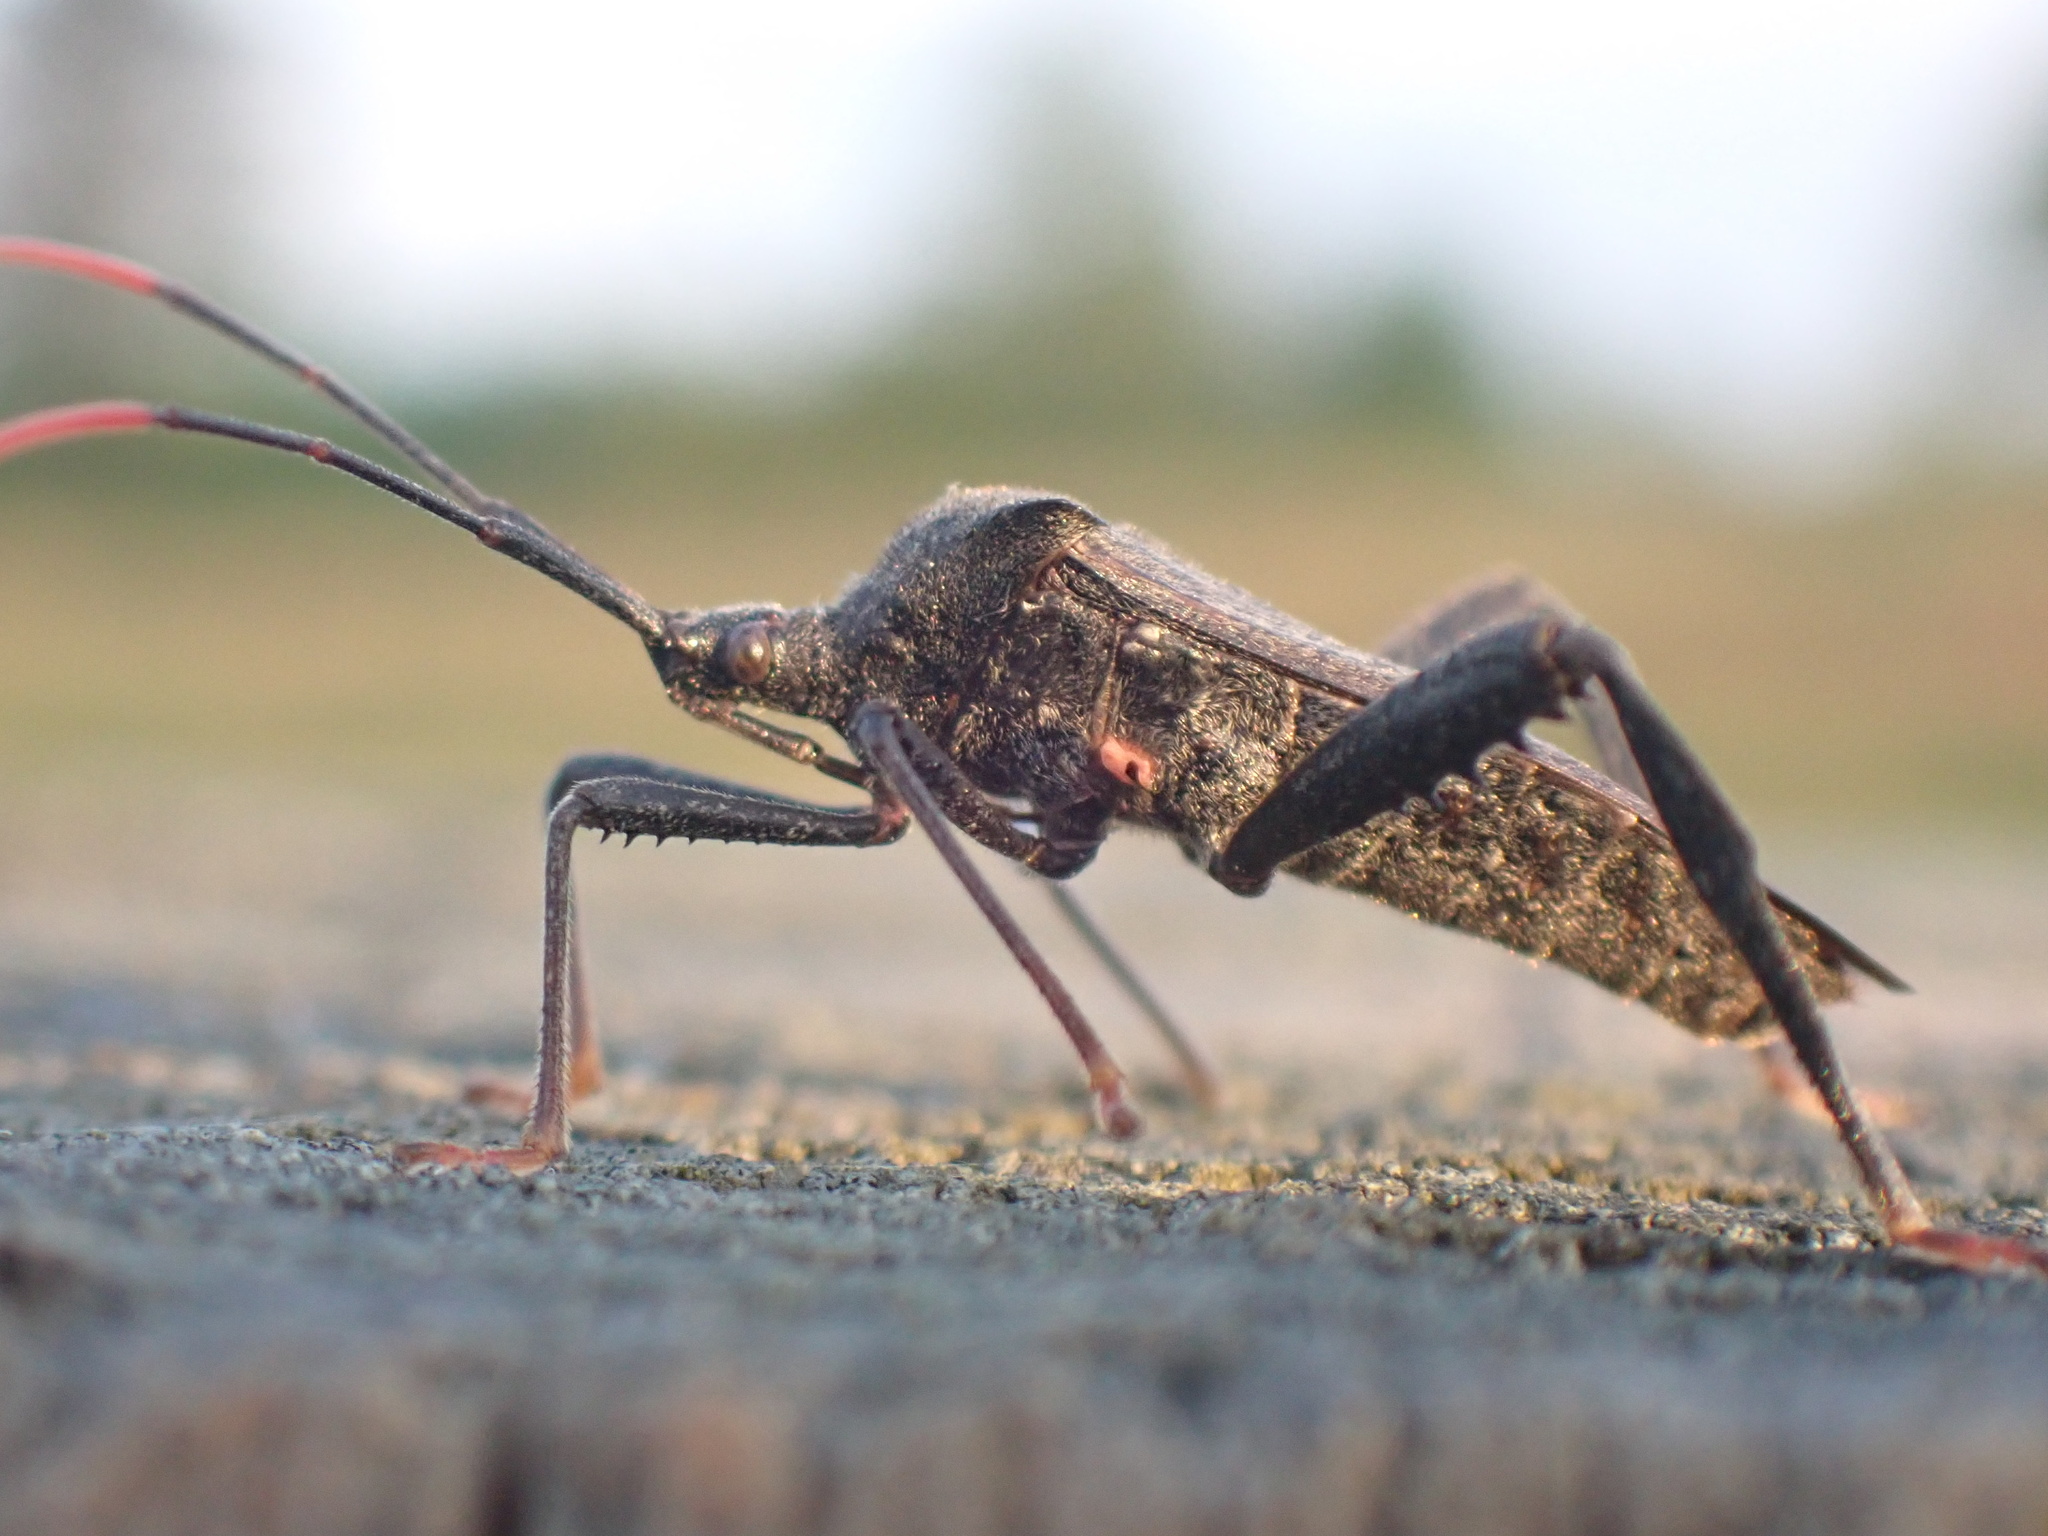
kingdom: Animalia
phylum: Arthropoda
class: Insecta
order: Hemiptera
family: Coreidae
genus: Acanthocephala
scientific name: Acanthocephala terminalis
